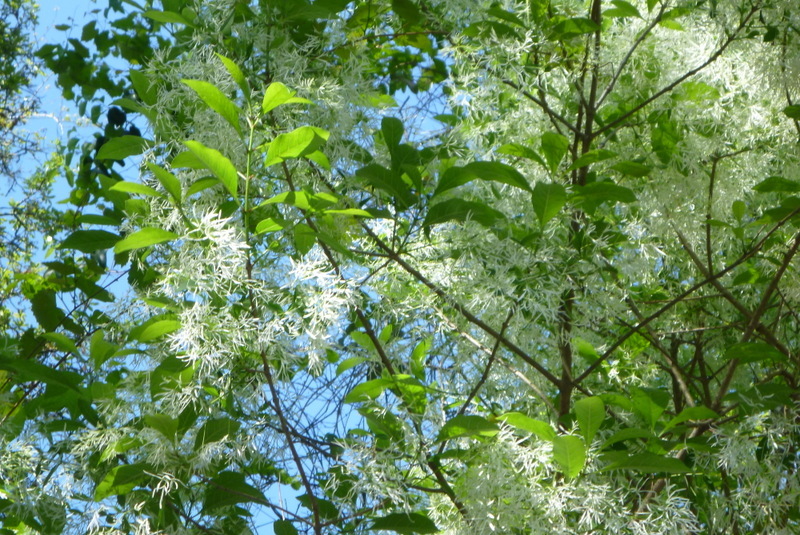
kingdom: Plantae
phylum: Tracheophyta
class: Magnoliopsida
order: Lamiales
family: Oleaceae
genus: Chionanthus
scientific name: Chionanthus virginicus
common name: American fringetree
